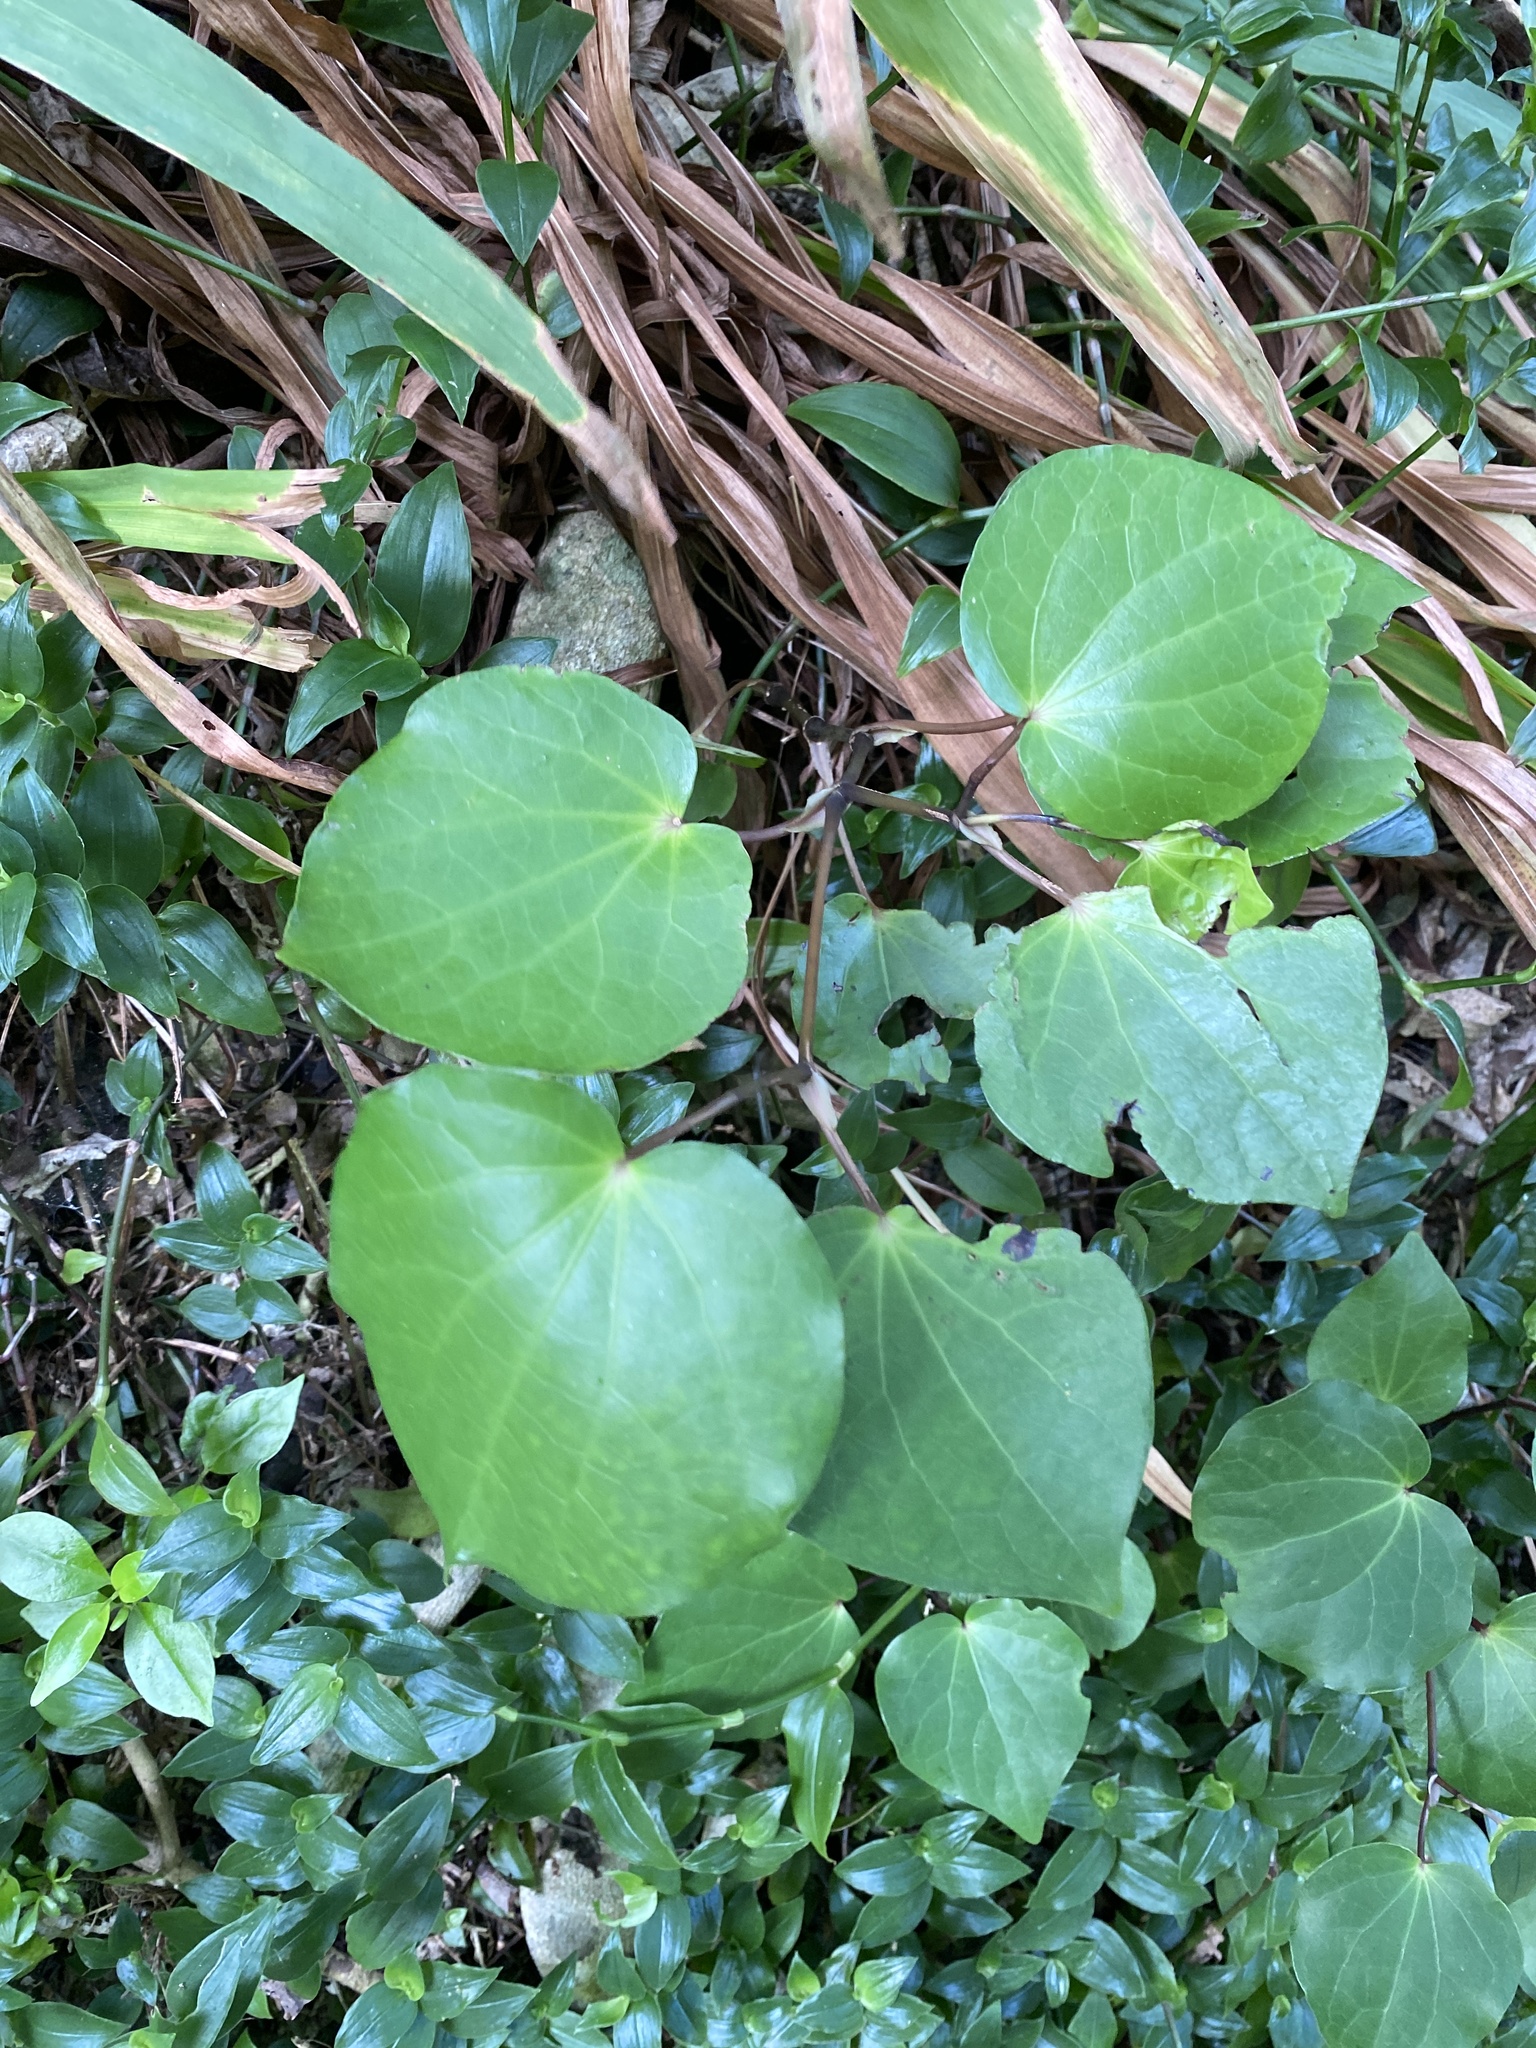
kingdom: Plantae
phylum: Tracheophyta
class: Magnoliopsida
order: Piperales
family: Piperaceae
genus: Macropiper
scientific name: Macropiper excelsum
